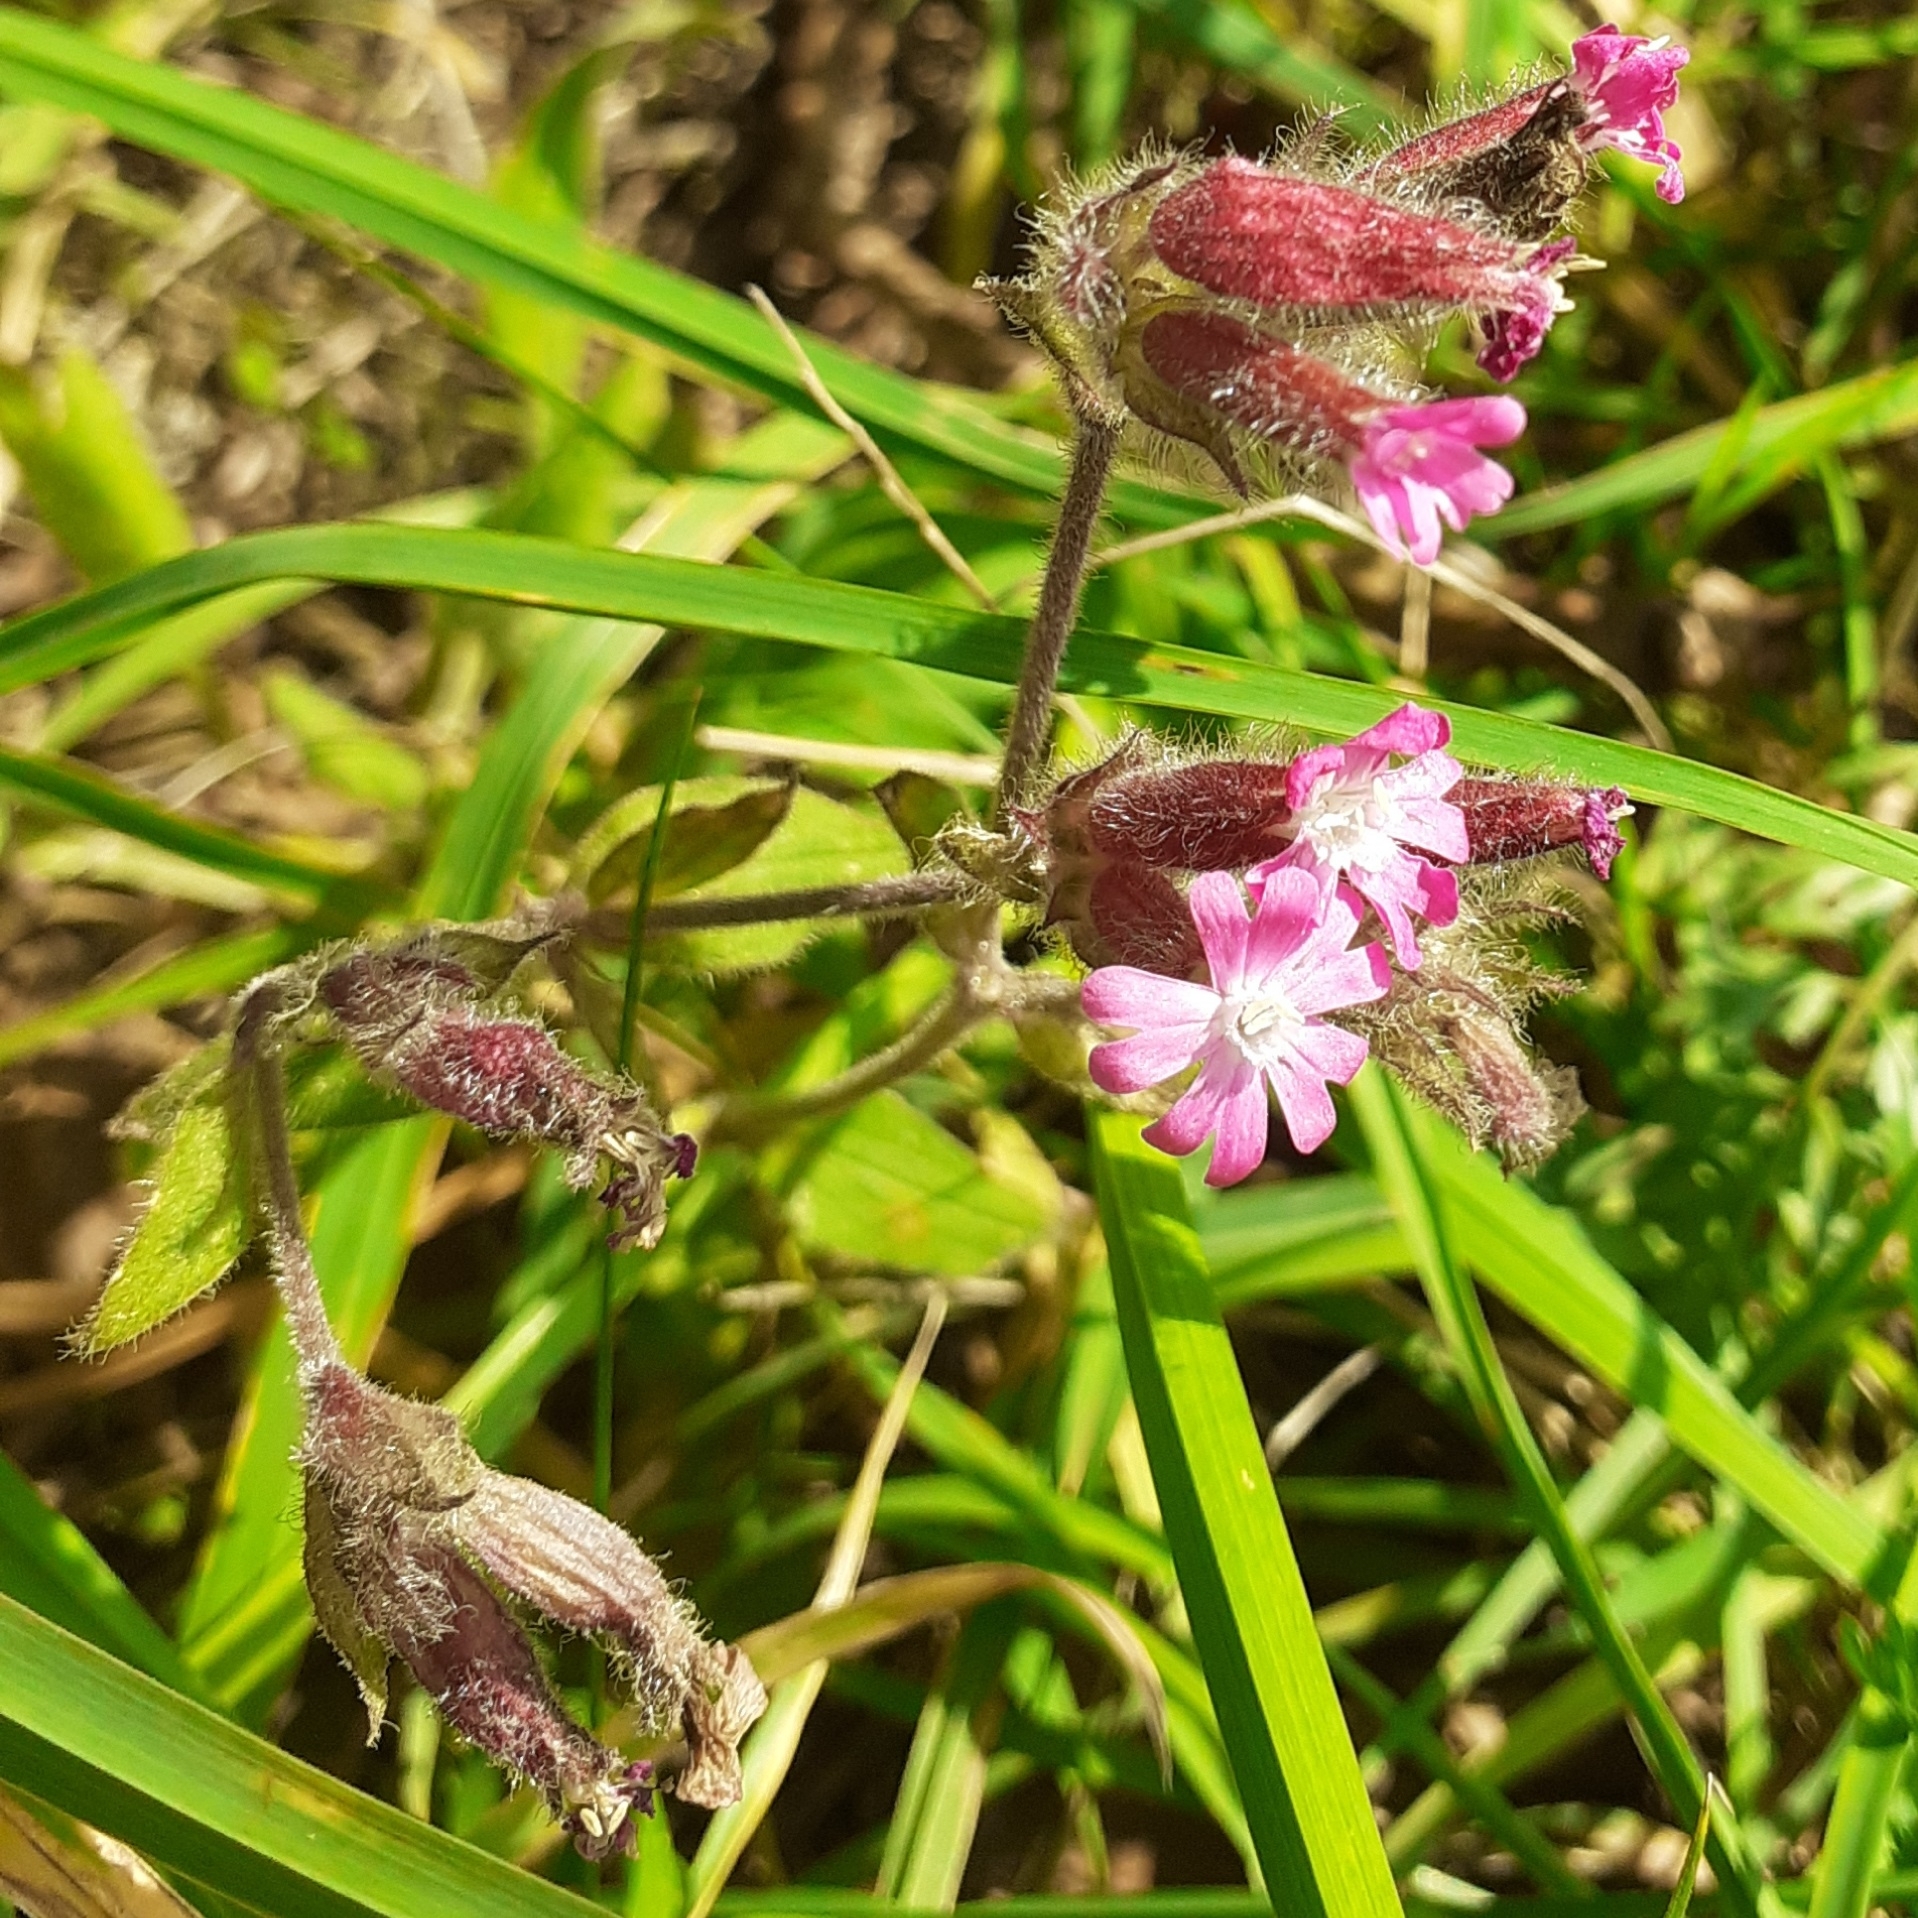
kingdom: Plantae
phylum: Tracheophyta
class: Magnoliopsida
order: Caryophyllales
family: Caryophyllaceae
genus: Silene
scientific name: Silene dioica
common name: Red campion
